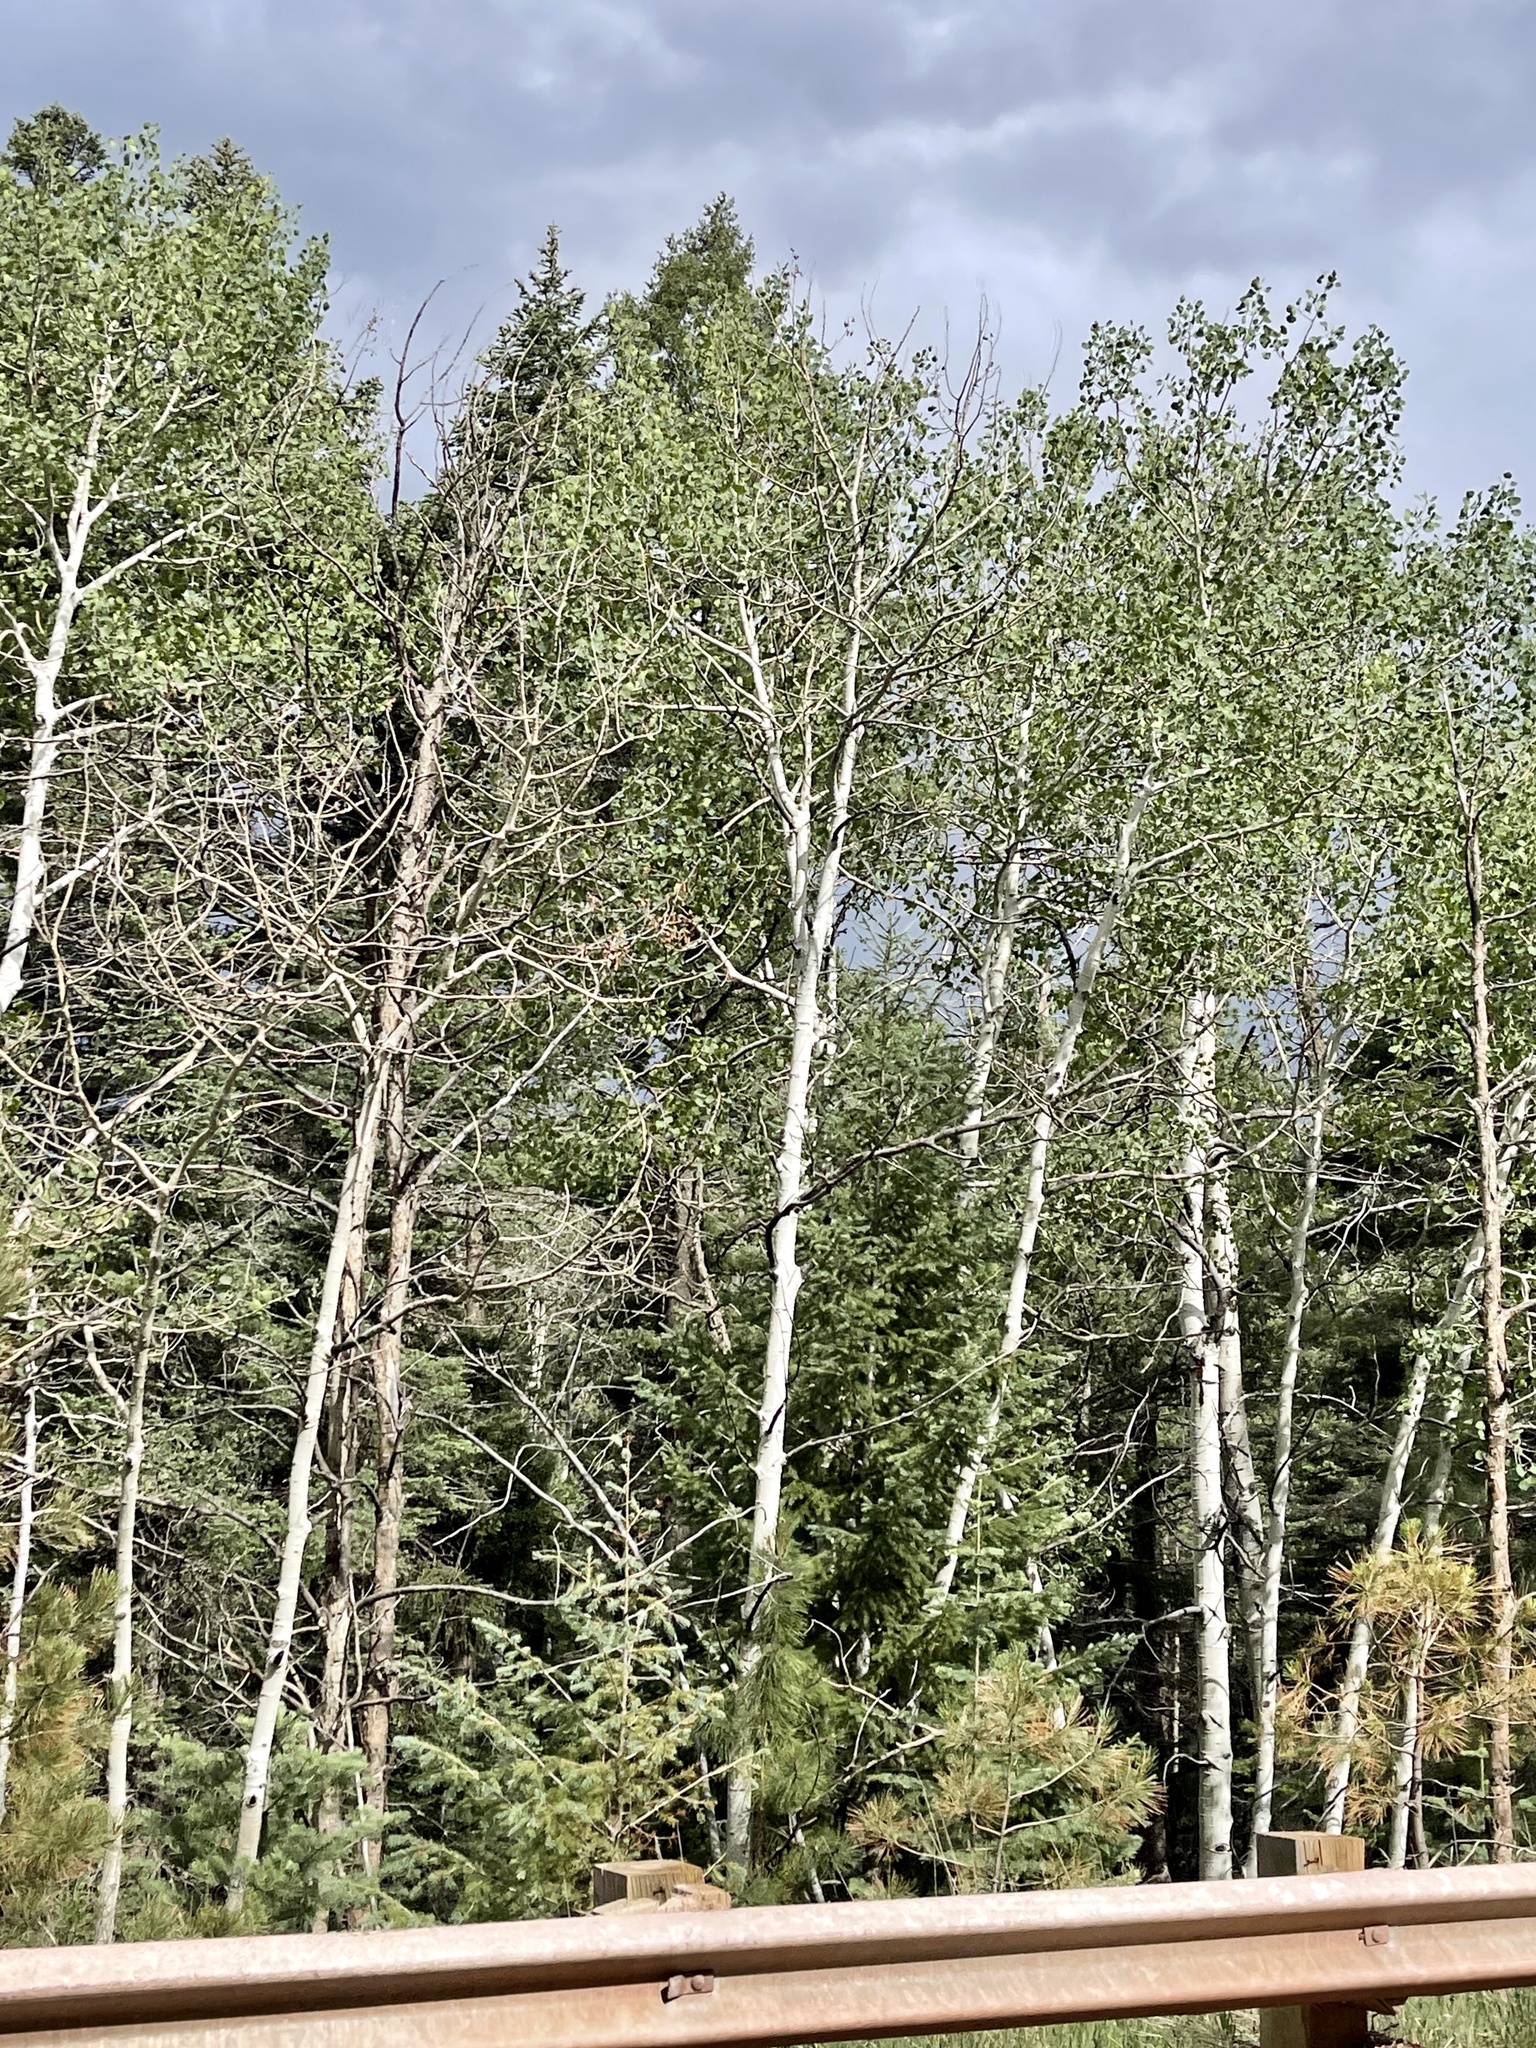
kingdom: Plantae
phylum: Tracheophyta
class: Magnoliopsida
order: Malpighiales
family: Salicaceae
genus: Populus
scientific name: Populus tremuloides
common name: Quaking aspen
